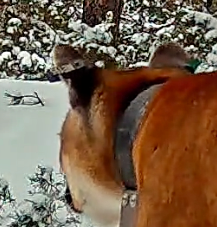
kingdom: Animalia
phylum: Chordata
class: Mammalia
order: Carnivora
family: Felidae
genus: Puma
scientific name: Puma concolor
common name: Puma
